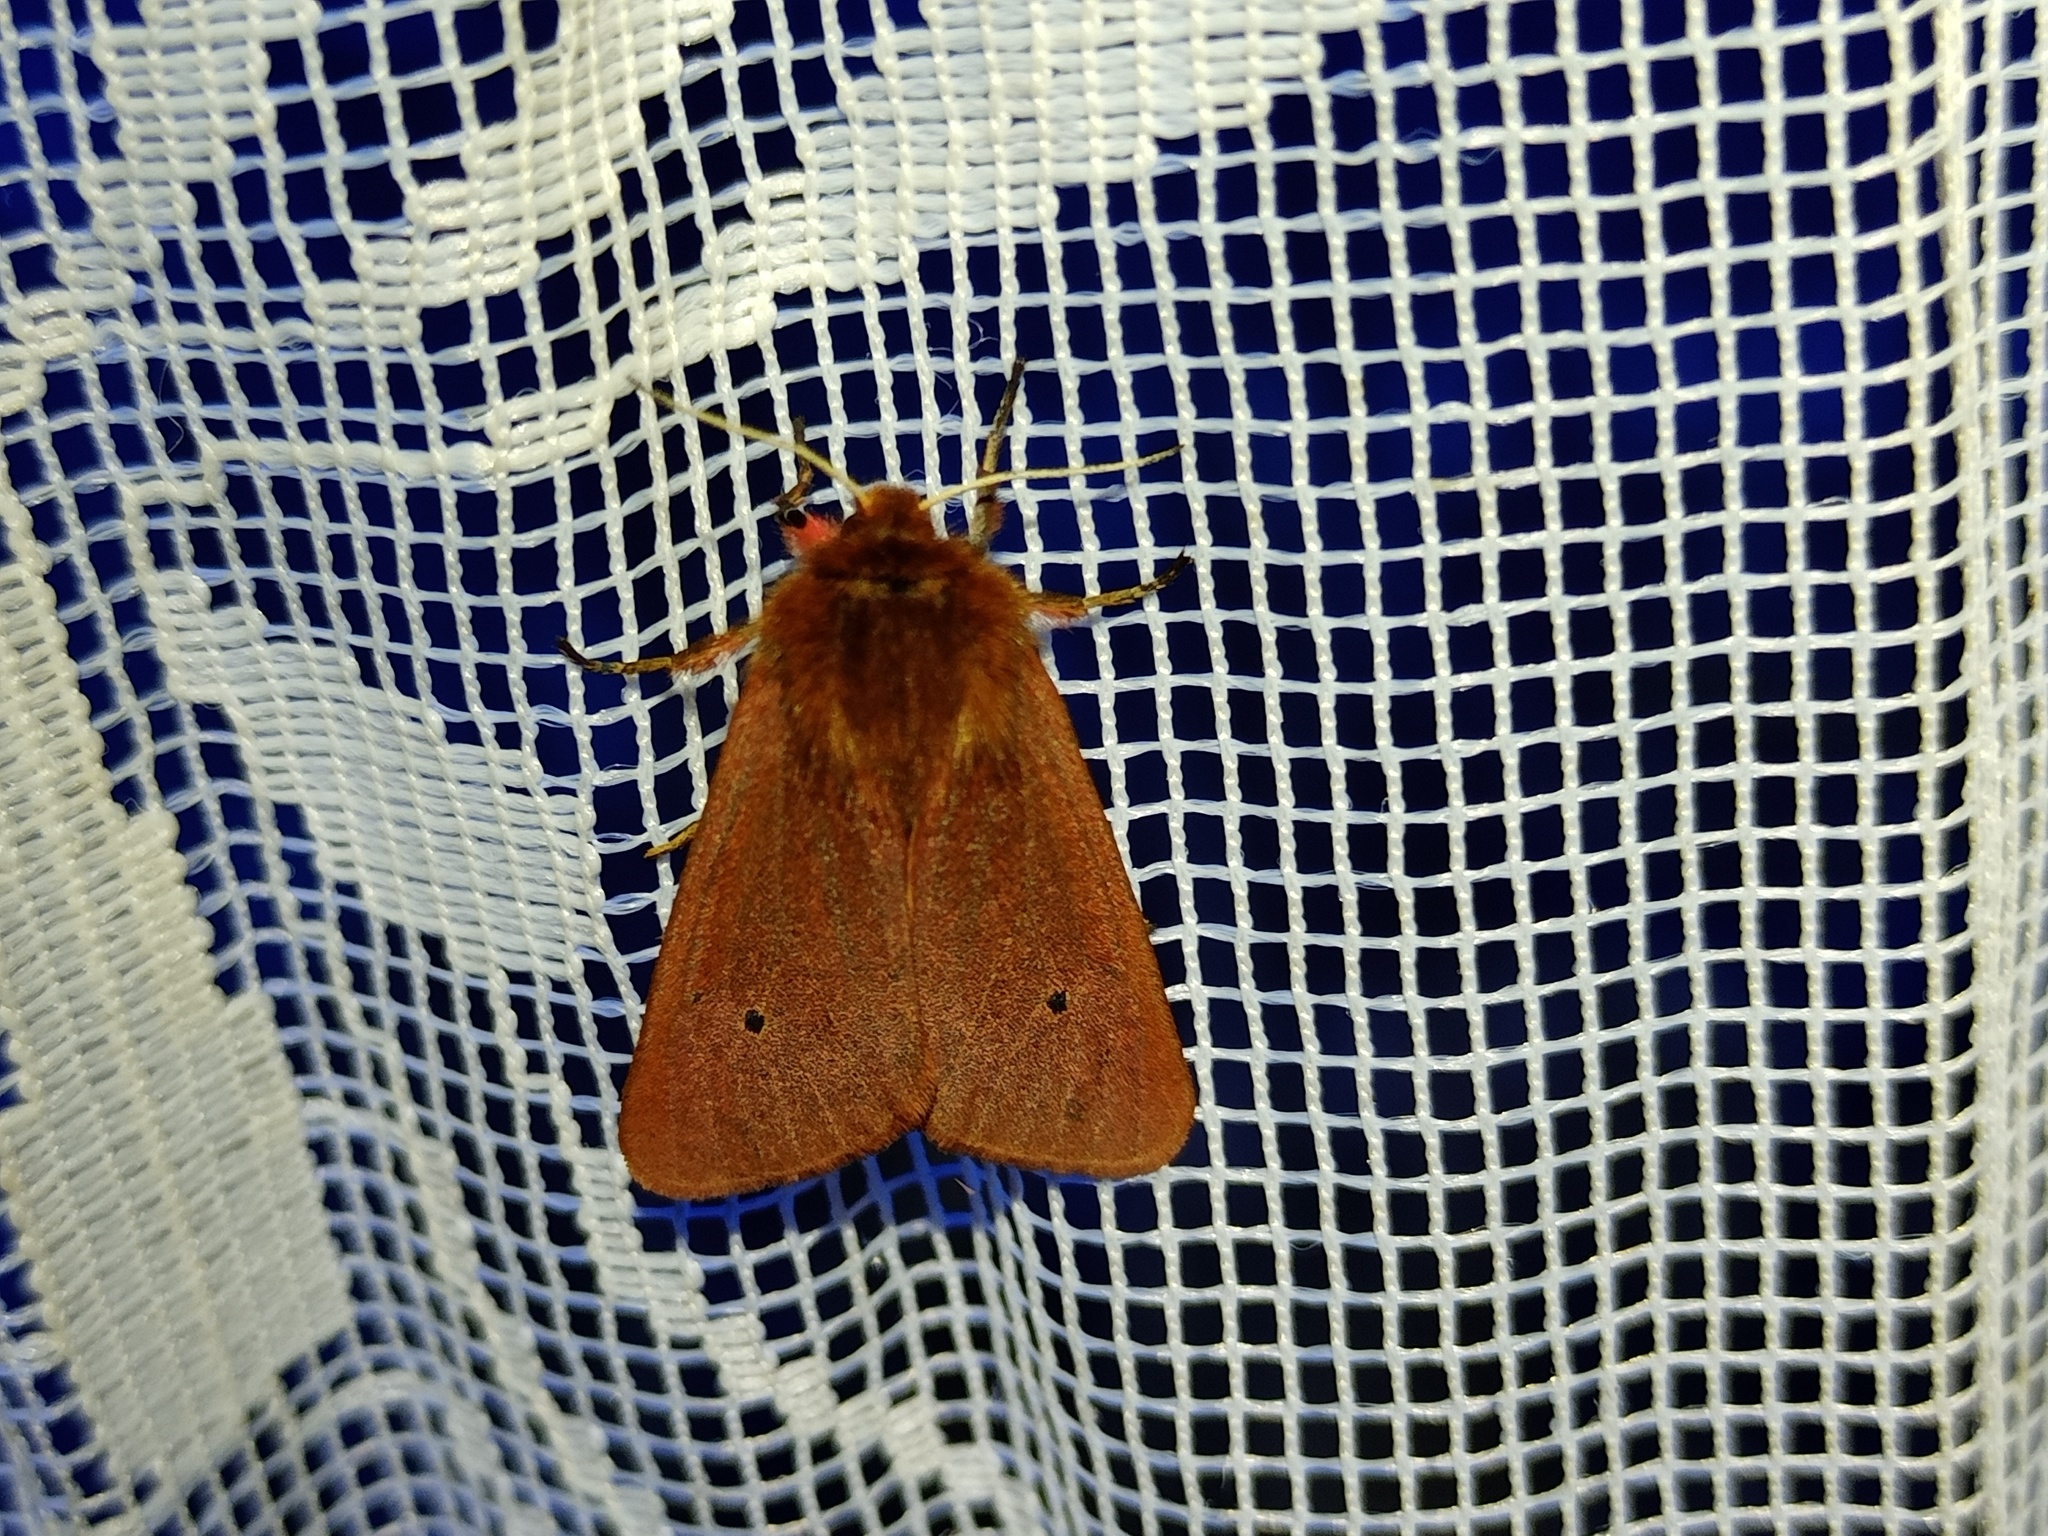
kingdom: Animalia
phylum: Arthropoda
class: Insecta
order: Lepidoptera
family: Erebidae
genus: Phragmatobia
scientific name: Phragmatobia fuliginosa
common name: Ruby tiger
